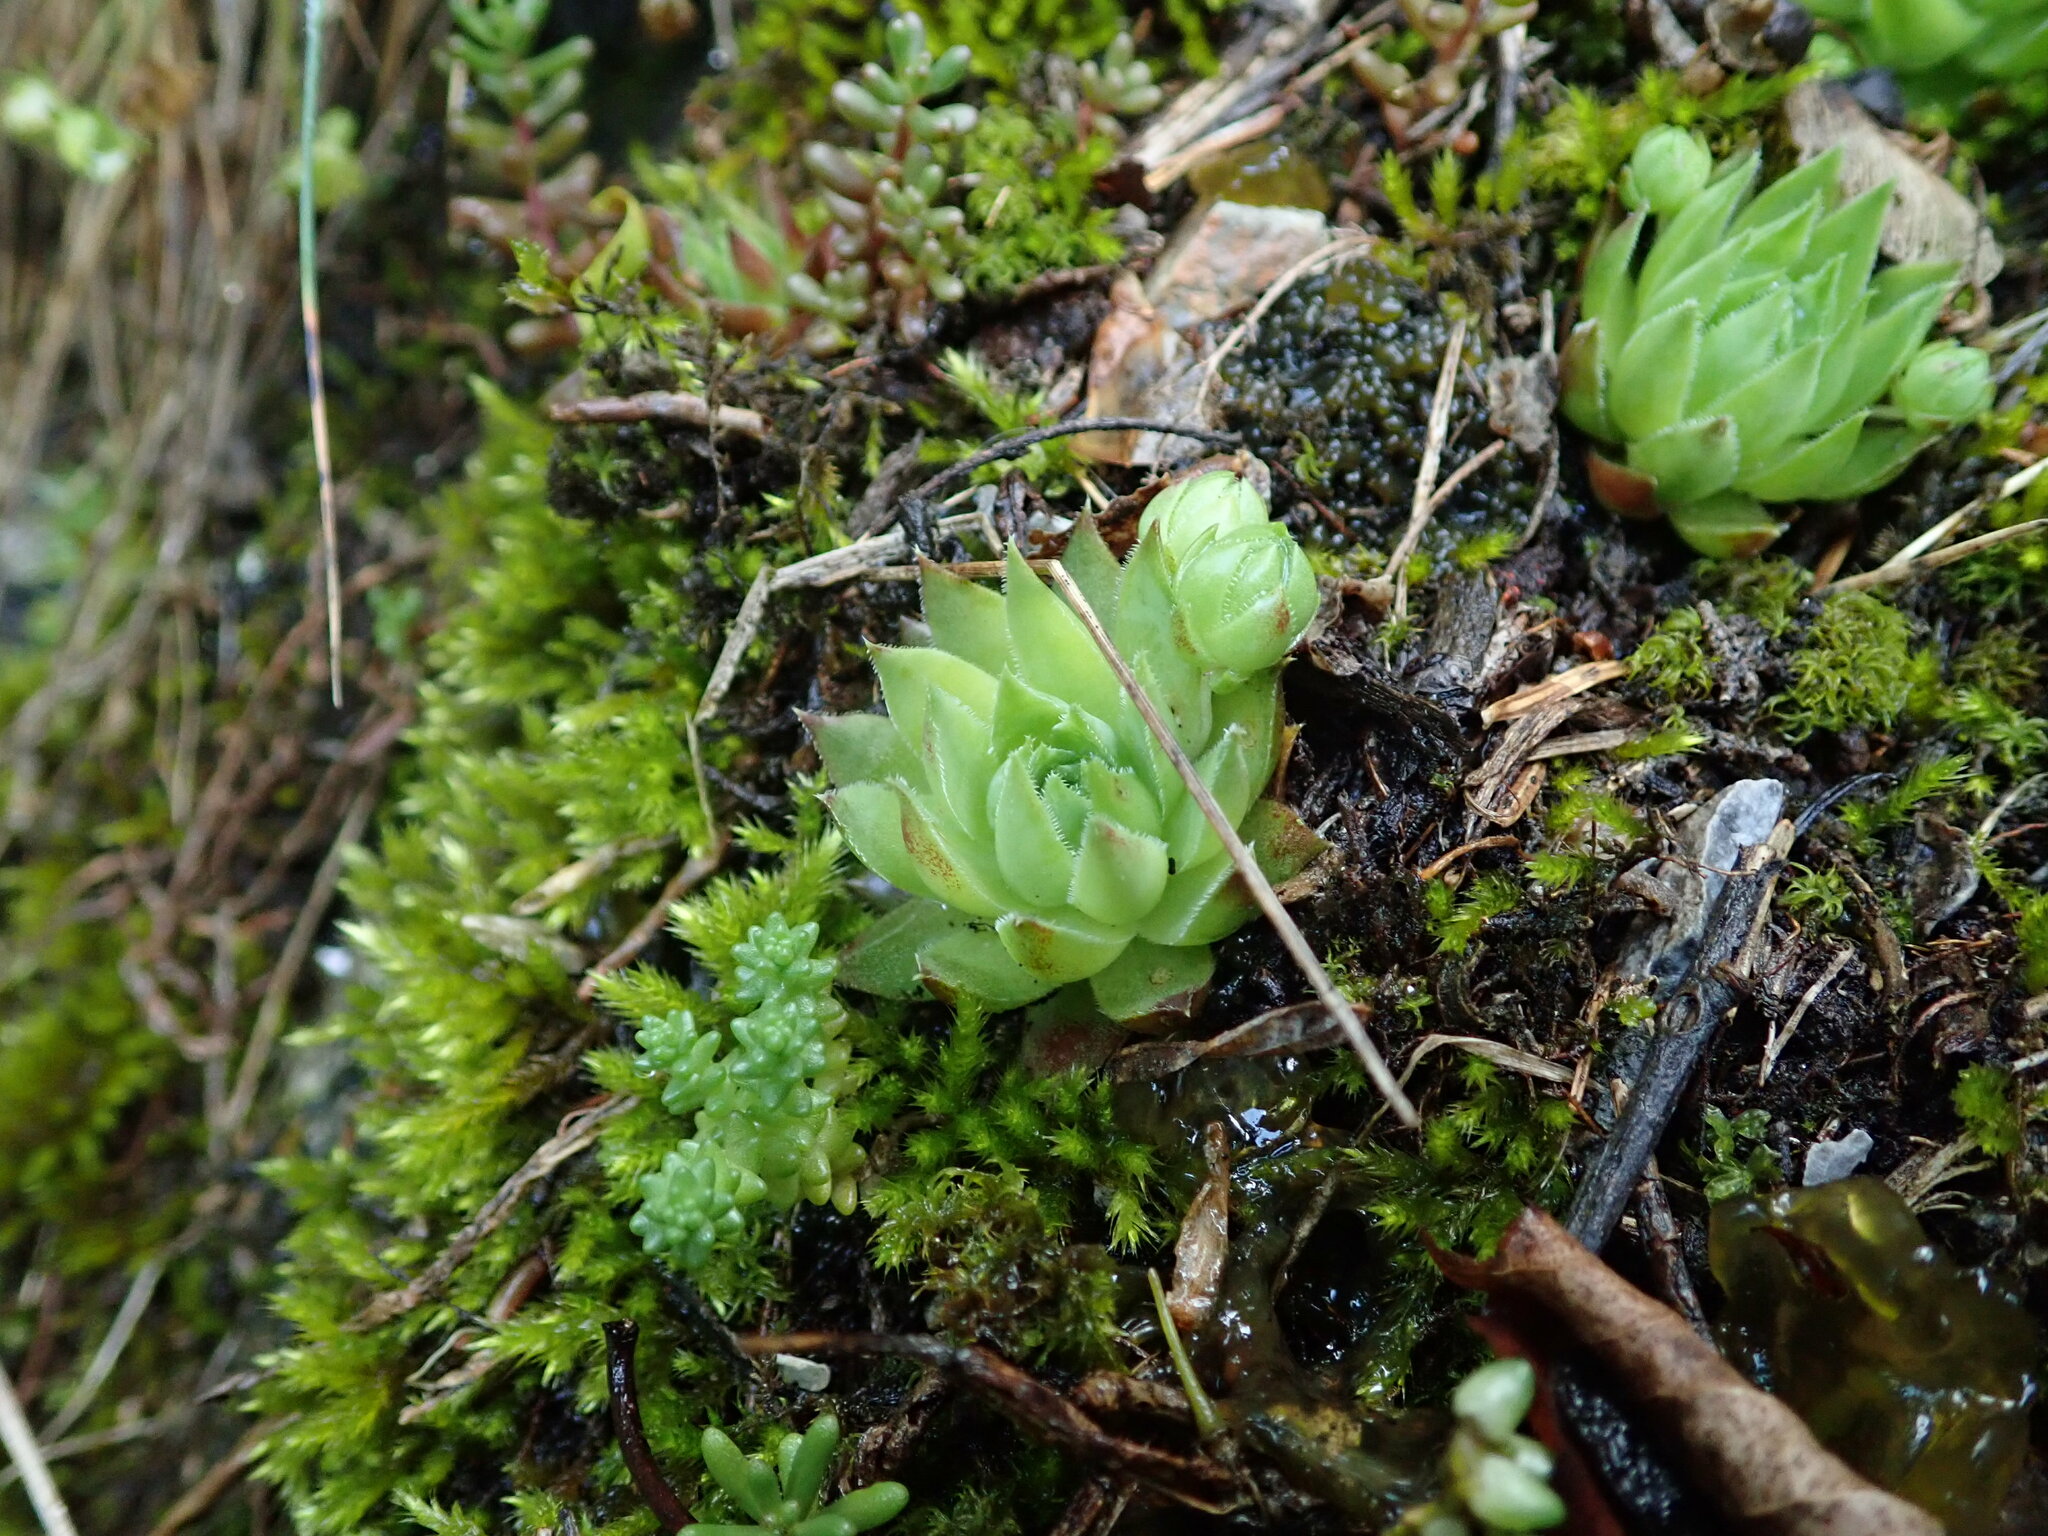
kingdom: Plantae
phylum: Tracheophyta
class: Magnoliopsida
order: Saxifragales
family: Crassulaceae
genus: Sempervivum
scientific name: Sempervivum globiferum
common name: Rolling hen-and-chicks
